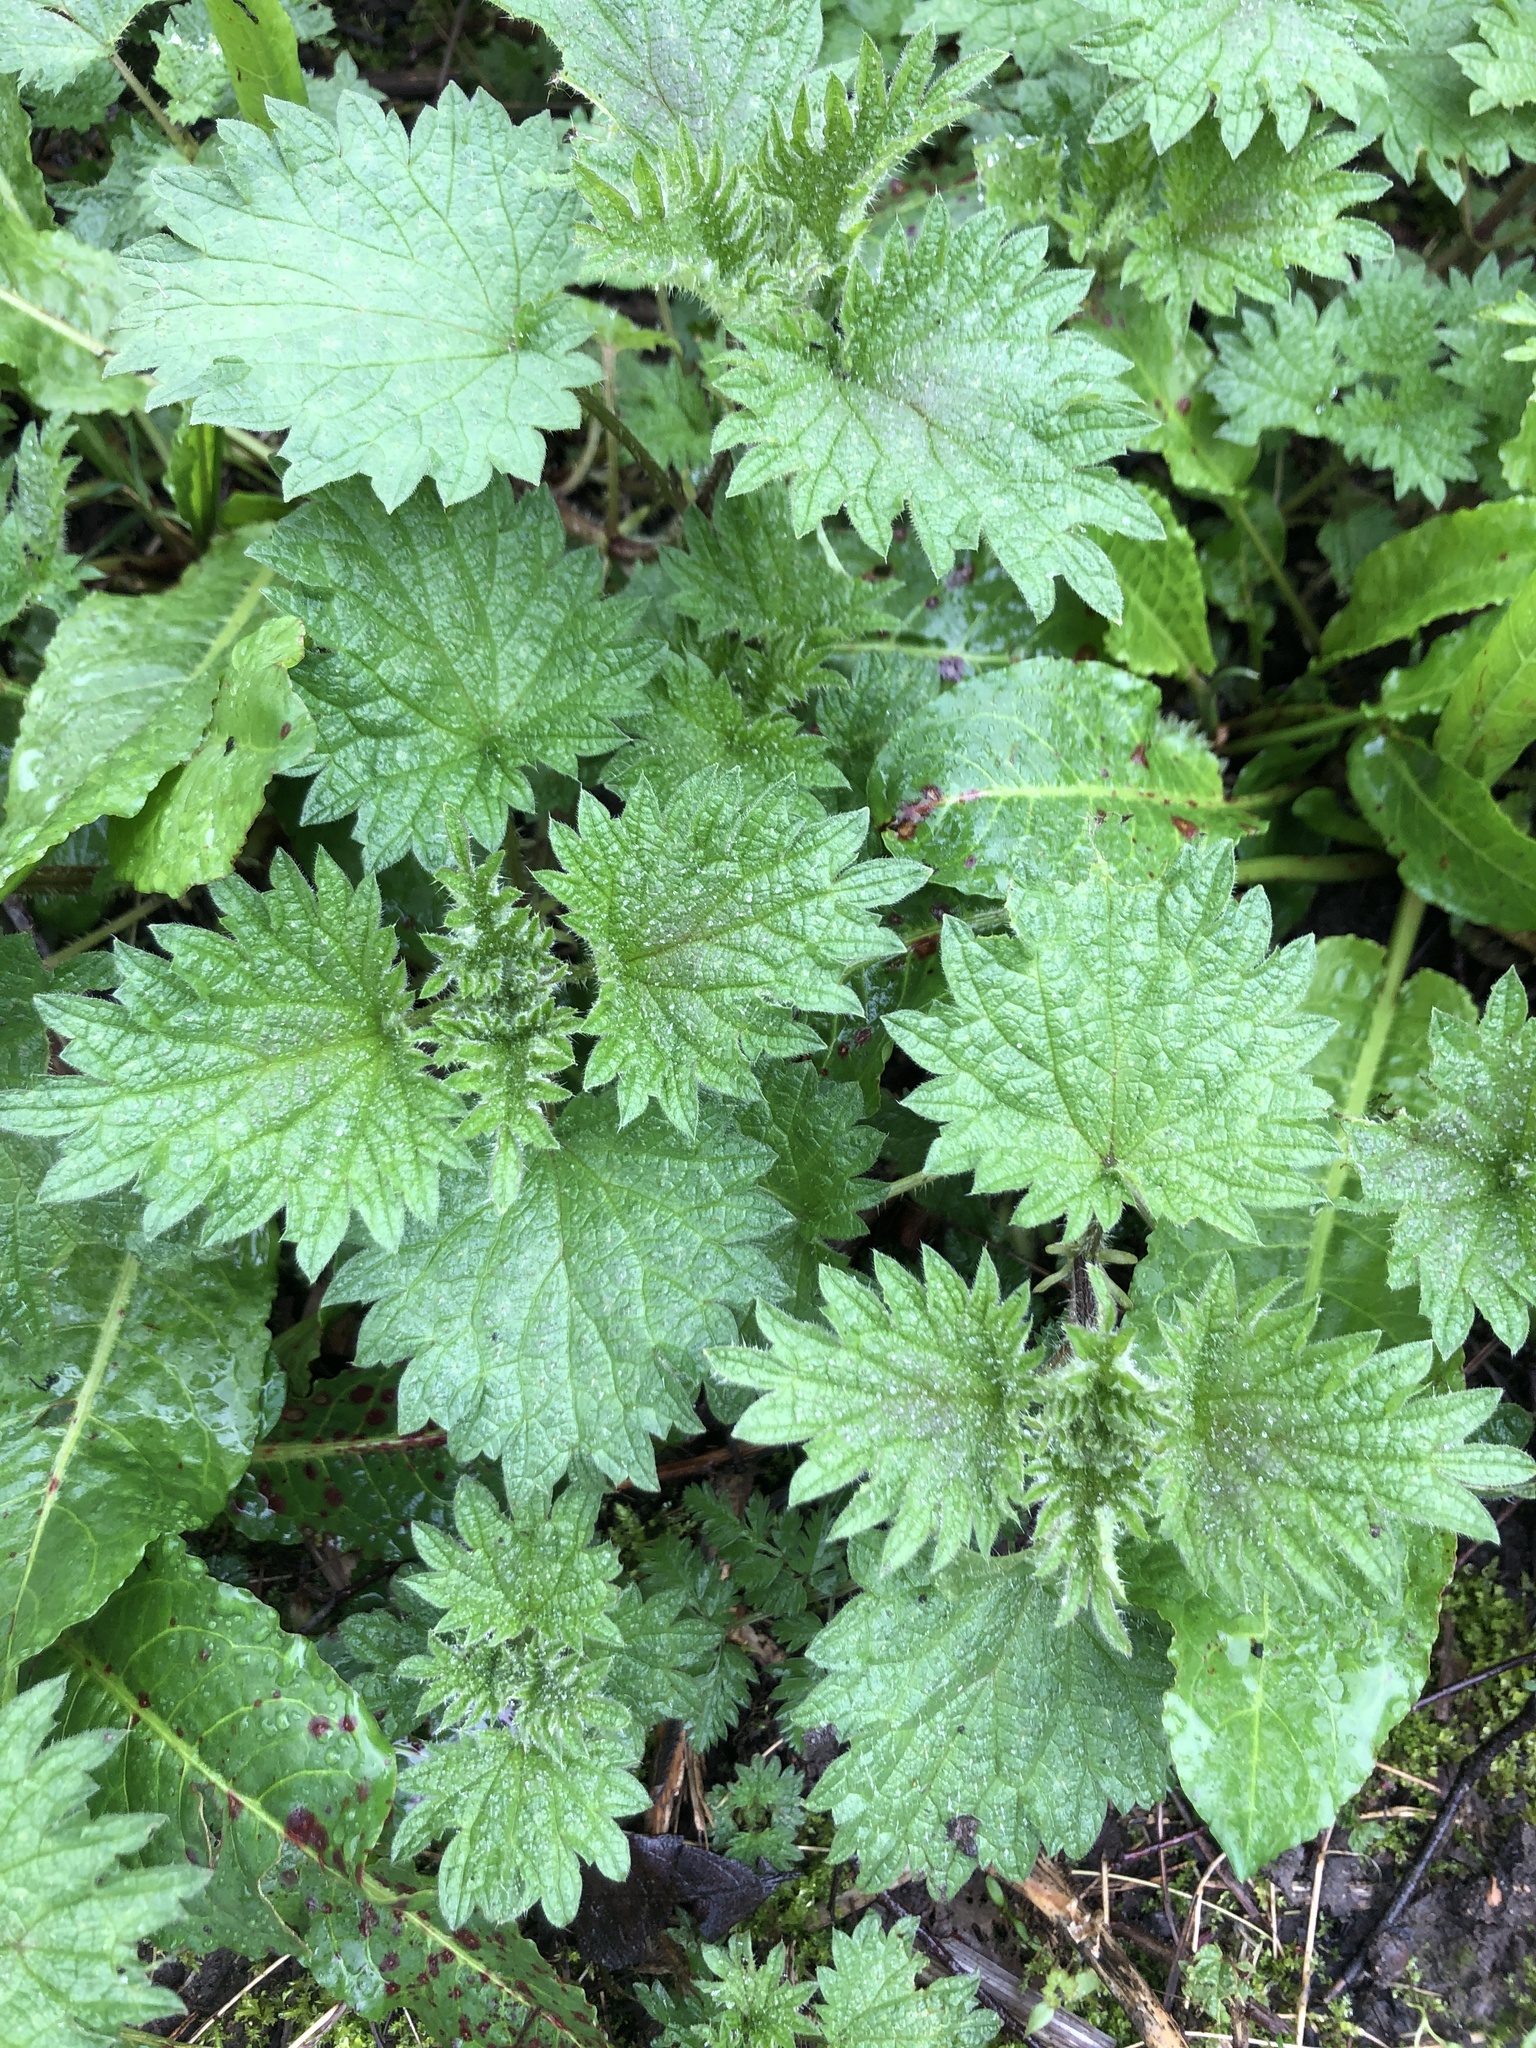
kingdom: Plantae
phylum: Tracheophyta
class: Magnoliopsida
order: Rosales
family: Urticaceae
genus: Urtica
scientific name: Urtica dioica
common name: Common nettle
